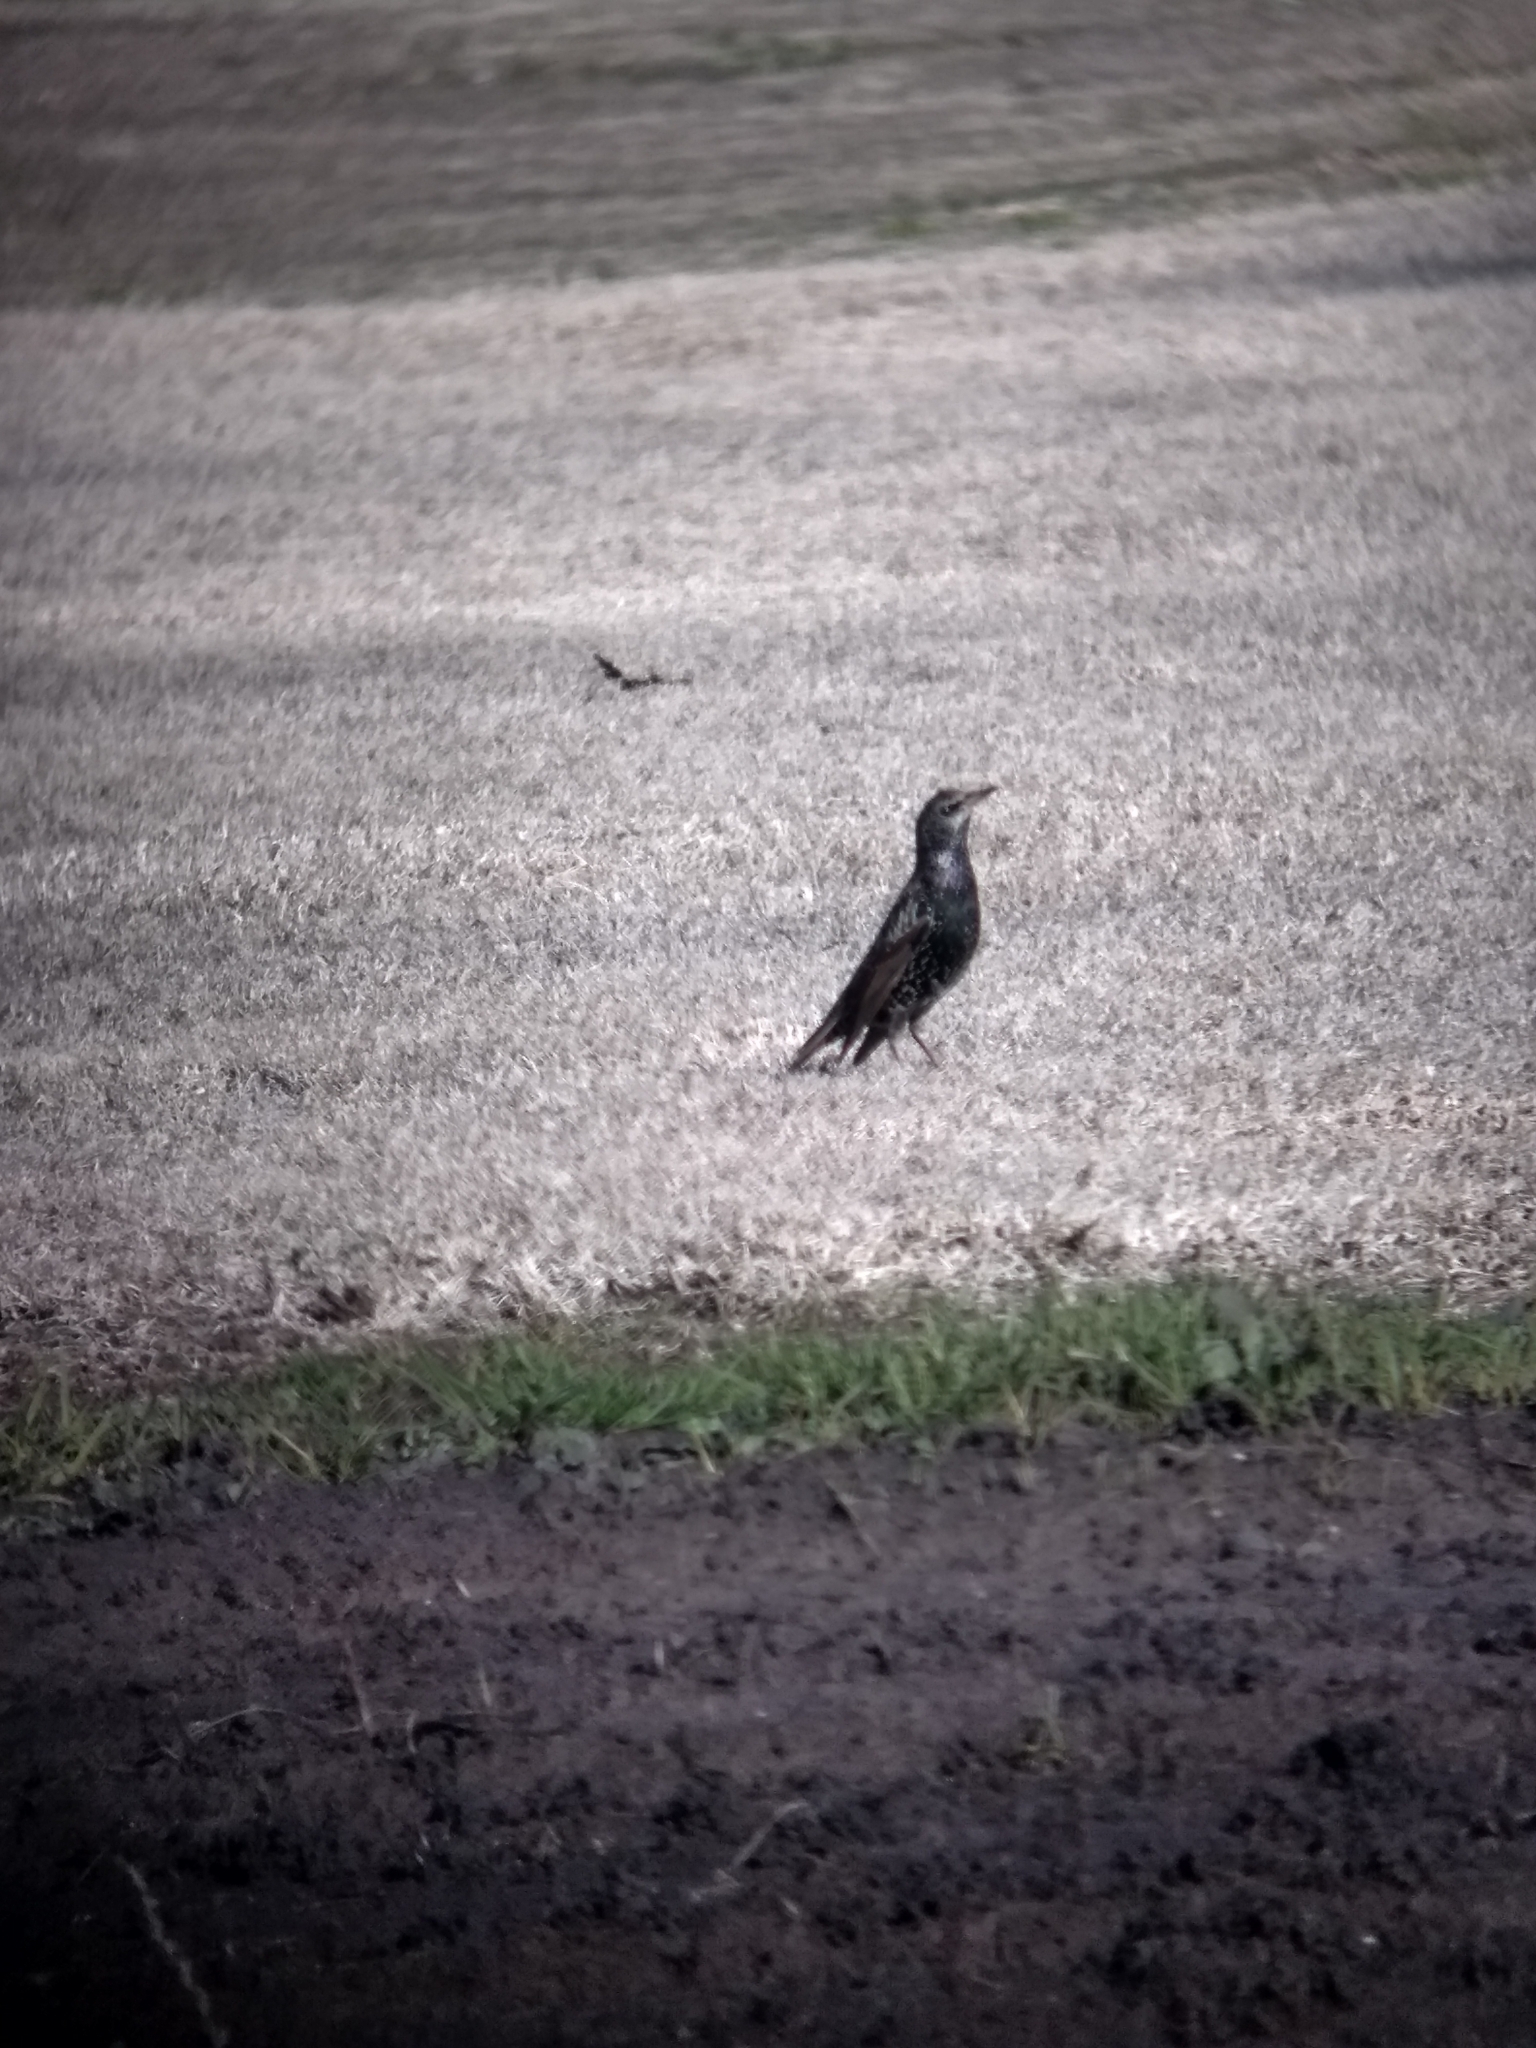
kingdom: Animalia
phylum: Chordata
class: Aves
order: Passeriformes
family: Sturnidae
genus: Sturnus
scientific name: Sturnus vulgaris
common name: Common starling
